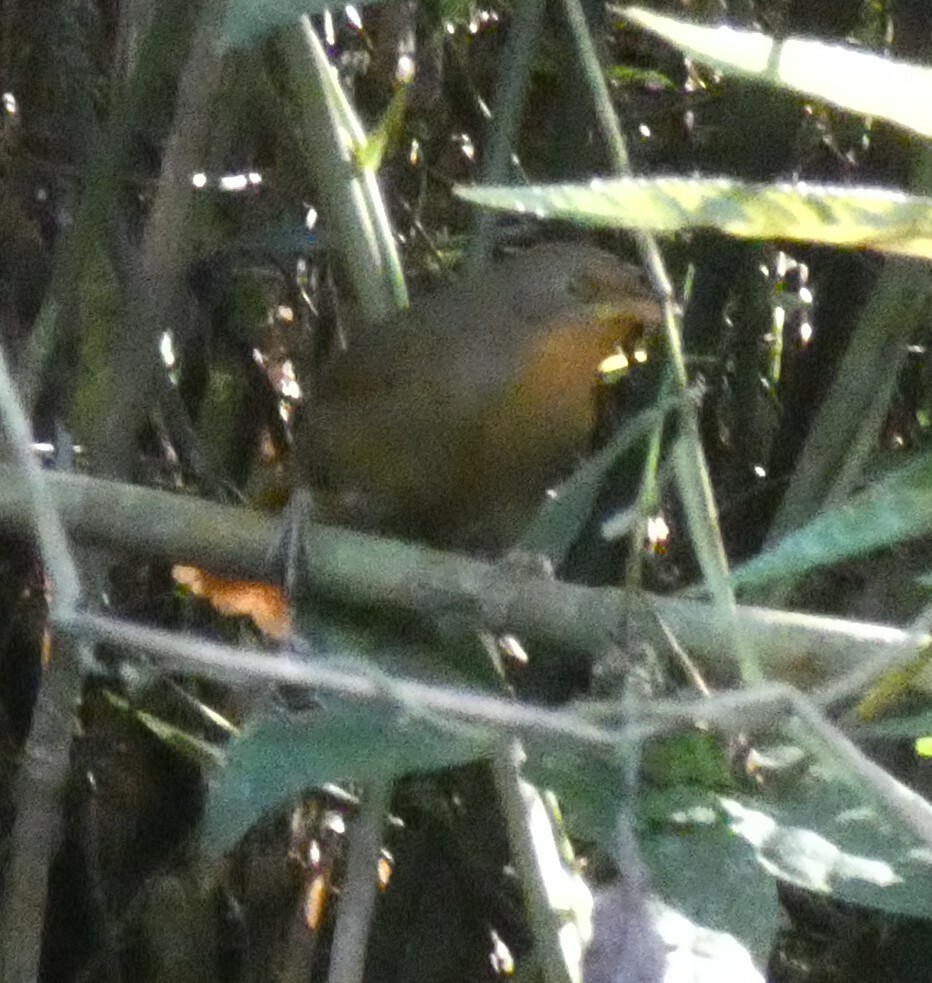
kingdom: Animalia
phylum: Chordata
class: Aves
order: Passeriformes
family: Furnariidae
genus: Phacellodomus
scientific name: Phacellodomus erythrophthalmus
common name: Orange-eyed thornbird
